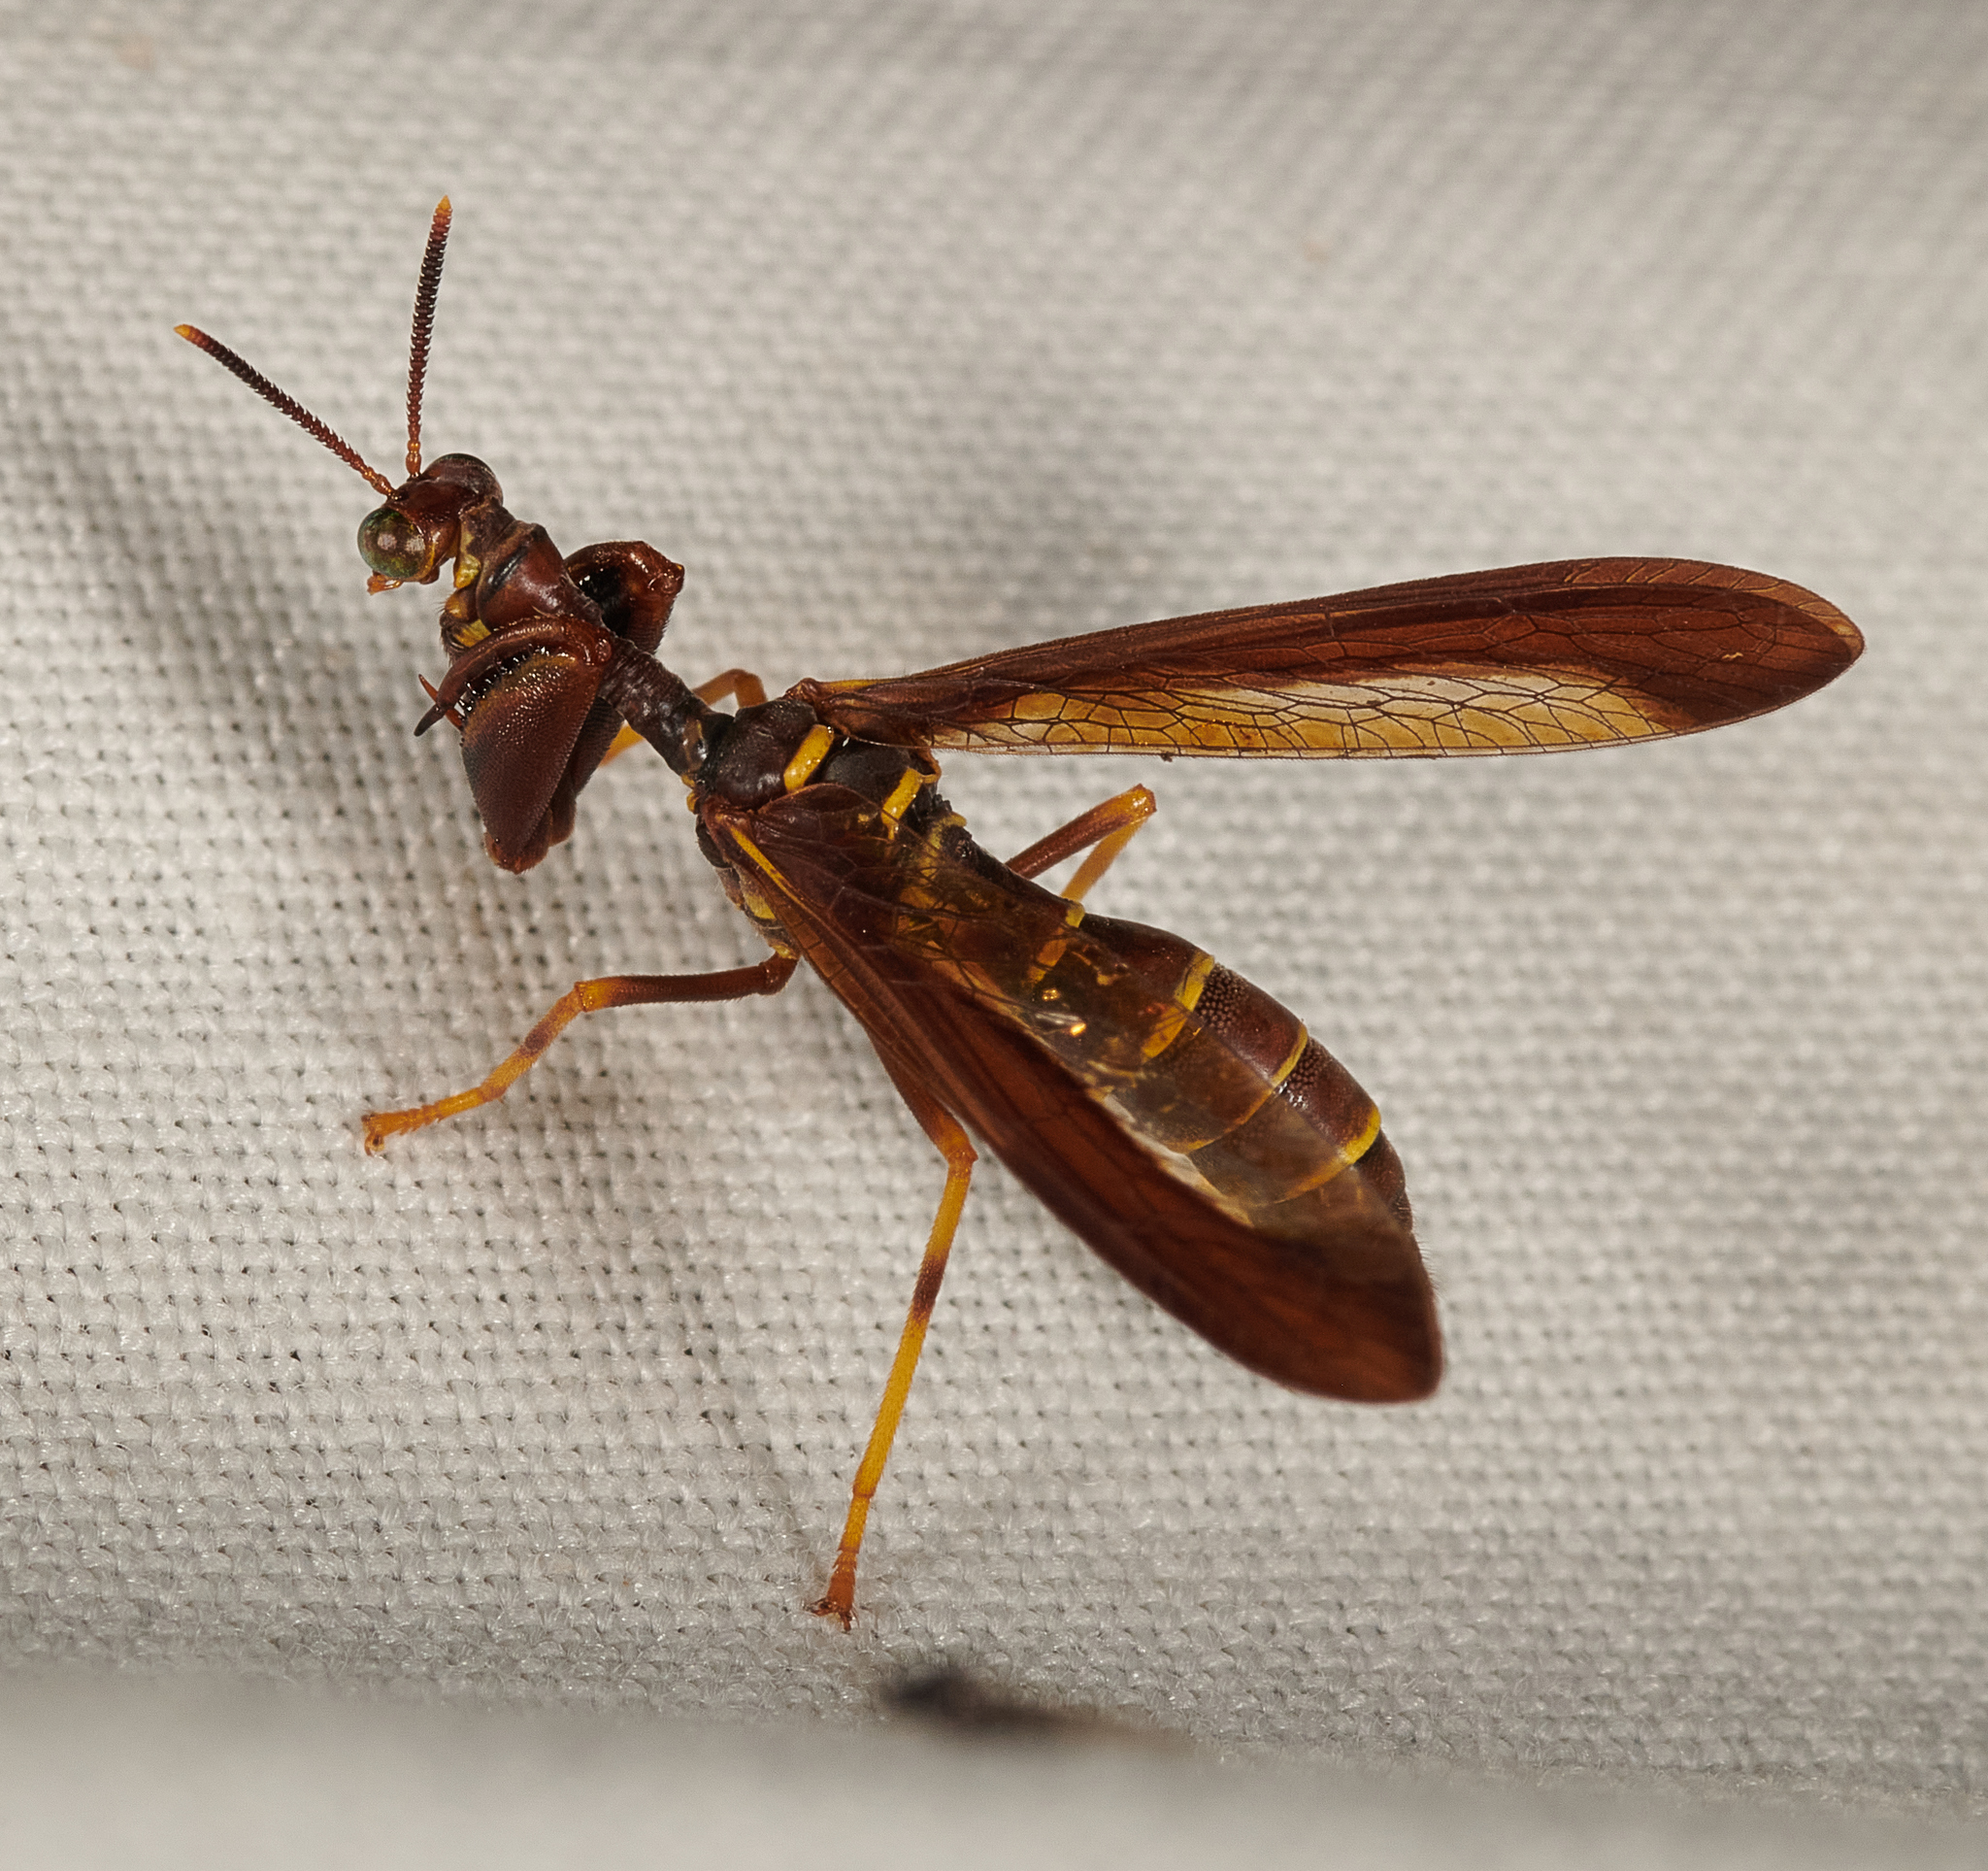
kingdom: Animalia
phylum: Arthropoda
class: Insecta
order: Neuroptera
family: Mantispidae
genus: Climaciella
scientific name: Climaciella brunnea
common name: Brown wasp mantidfly
